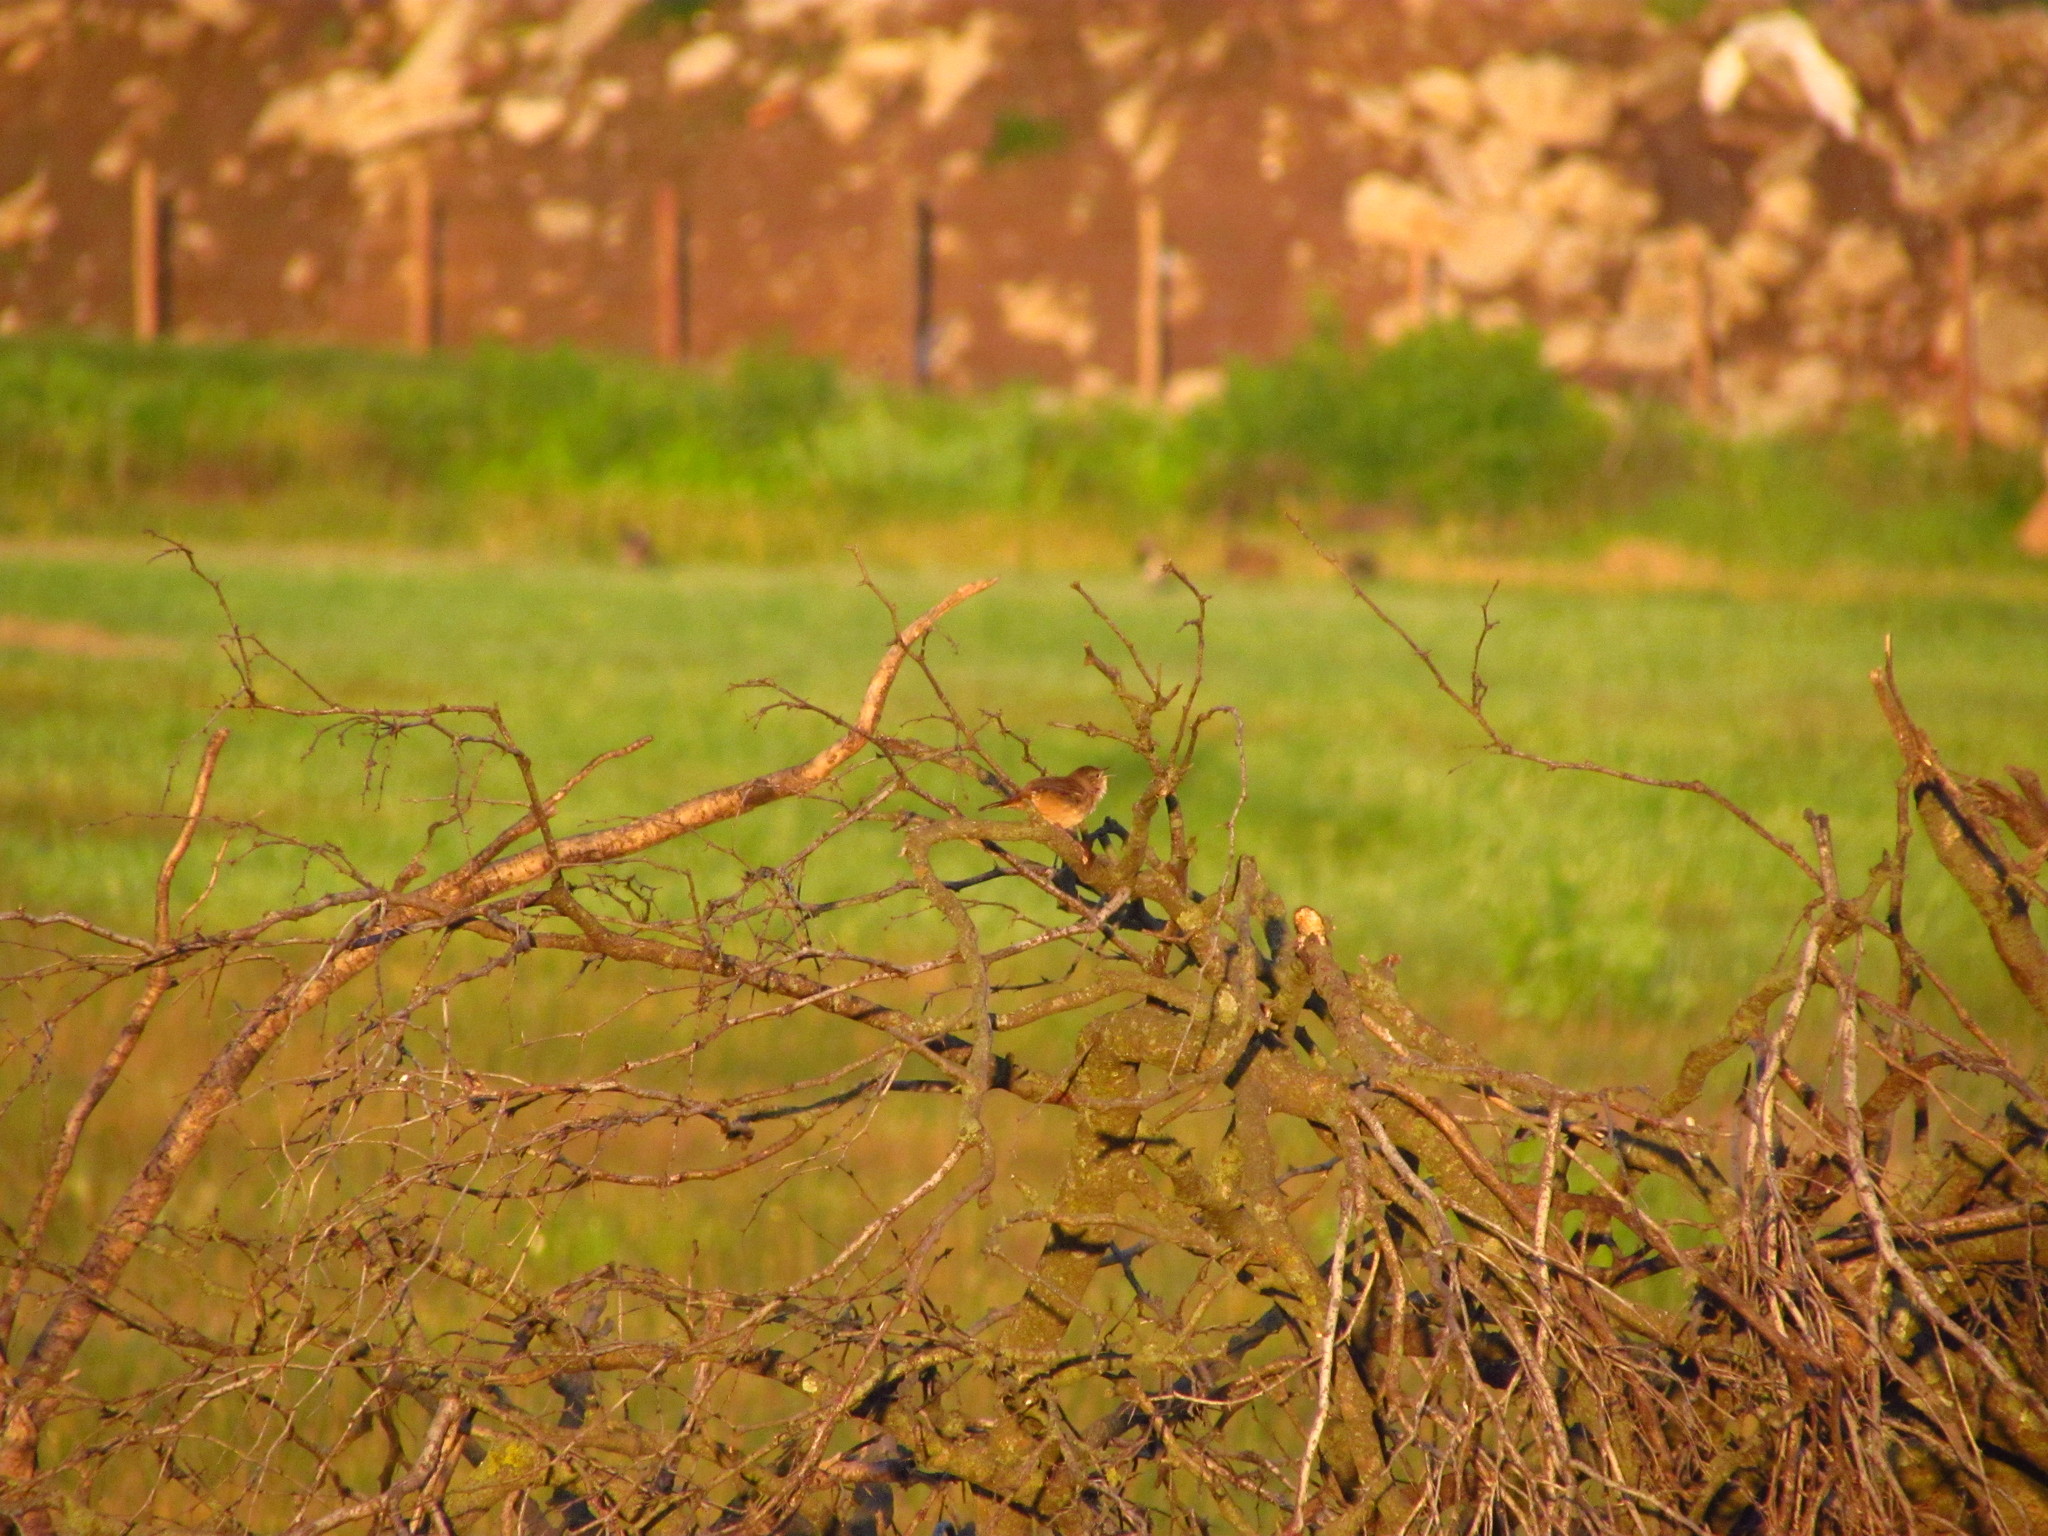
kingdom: Animalia
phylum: Chordata
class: Aves
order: Passeriformes
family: Troglodytidae
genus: Troglodytes
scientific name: Troglodytes aedon
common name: House wren
